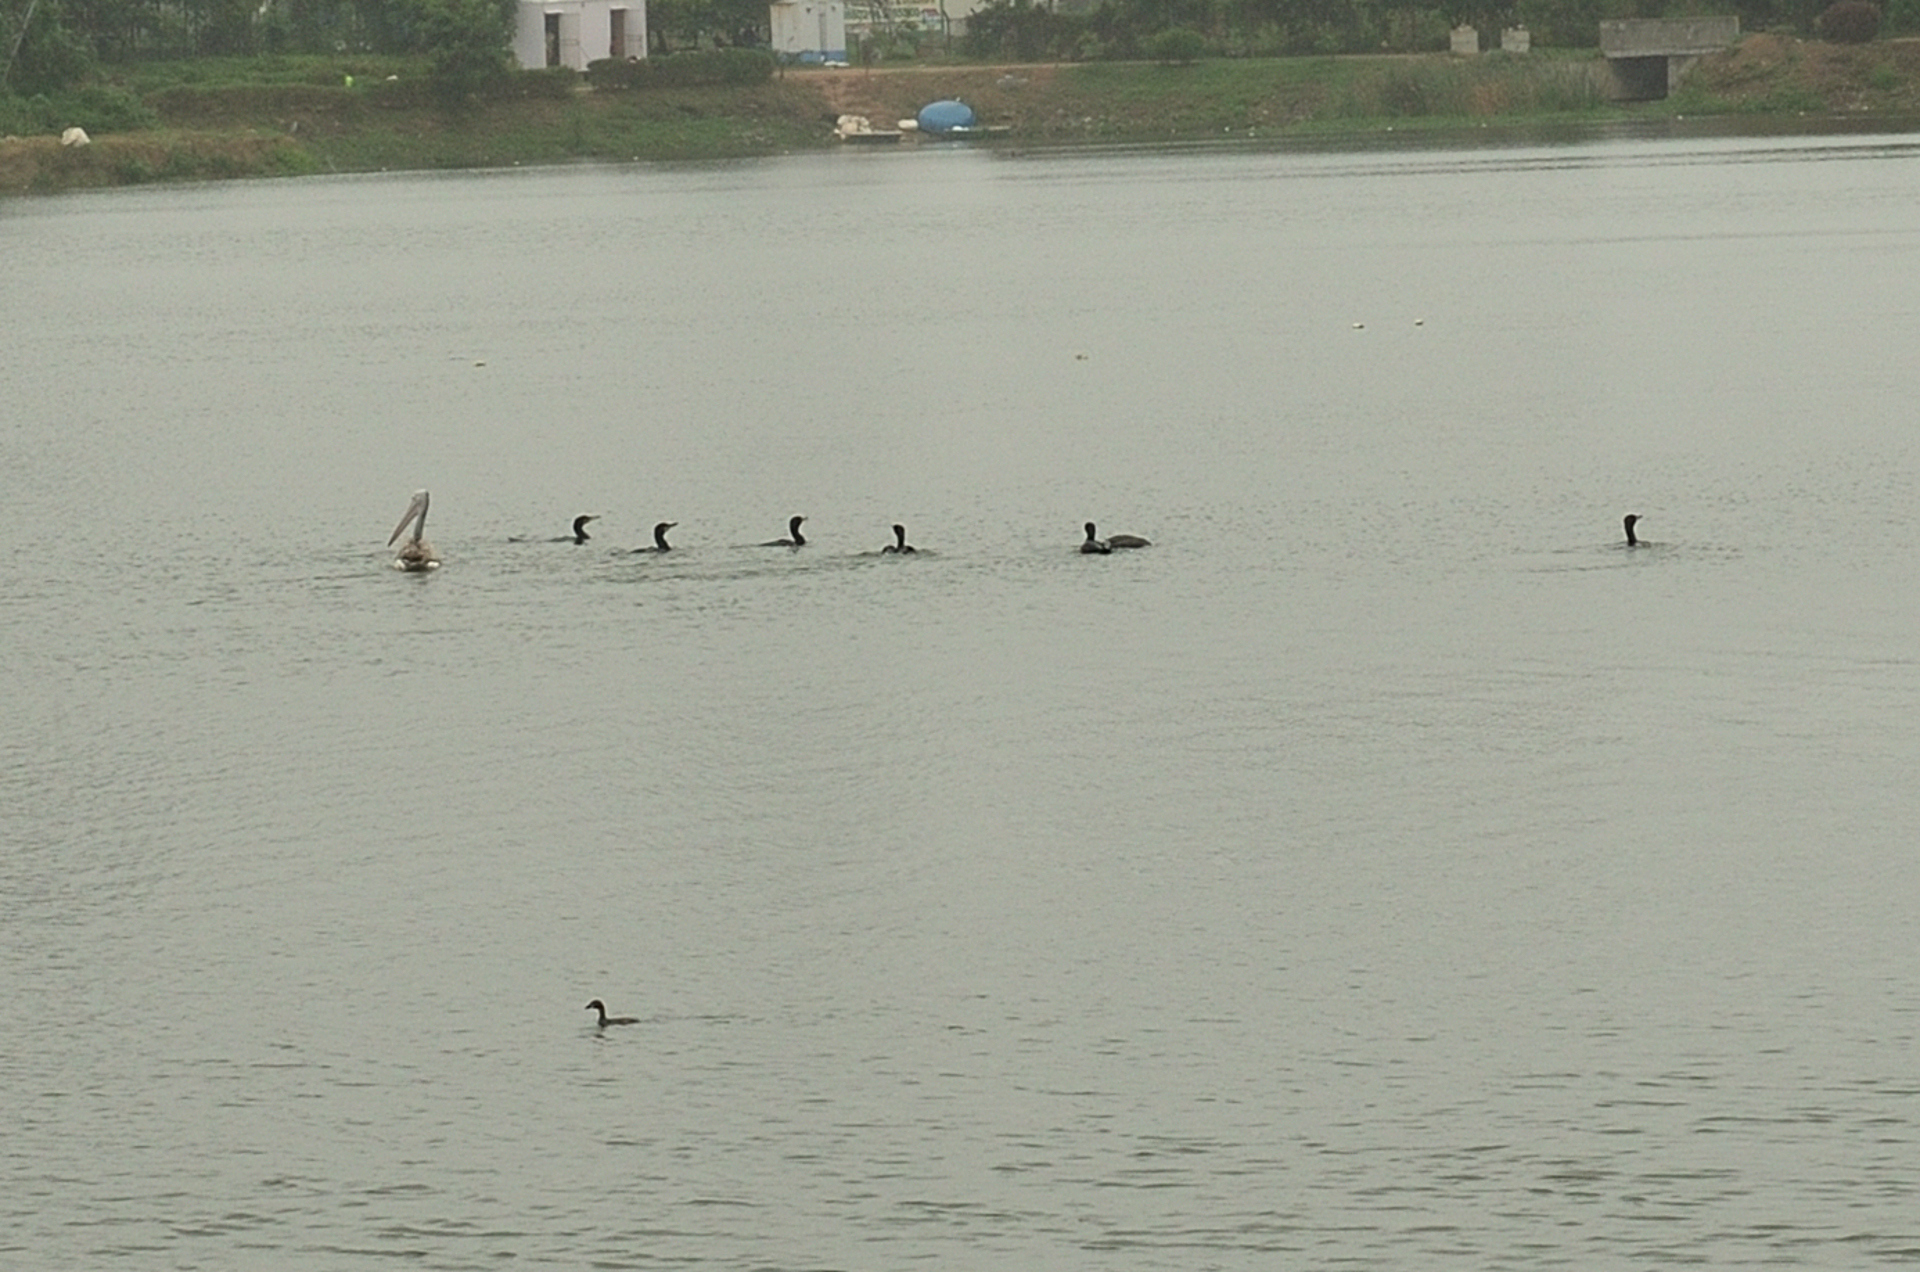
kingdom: Animalia
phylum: Chordata
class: Aves
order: Pelecaniformes
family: Pelecanidae
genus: Pelecanus
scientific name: Pelecanus philippensis
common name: Spot-billed pelican
